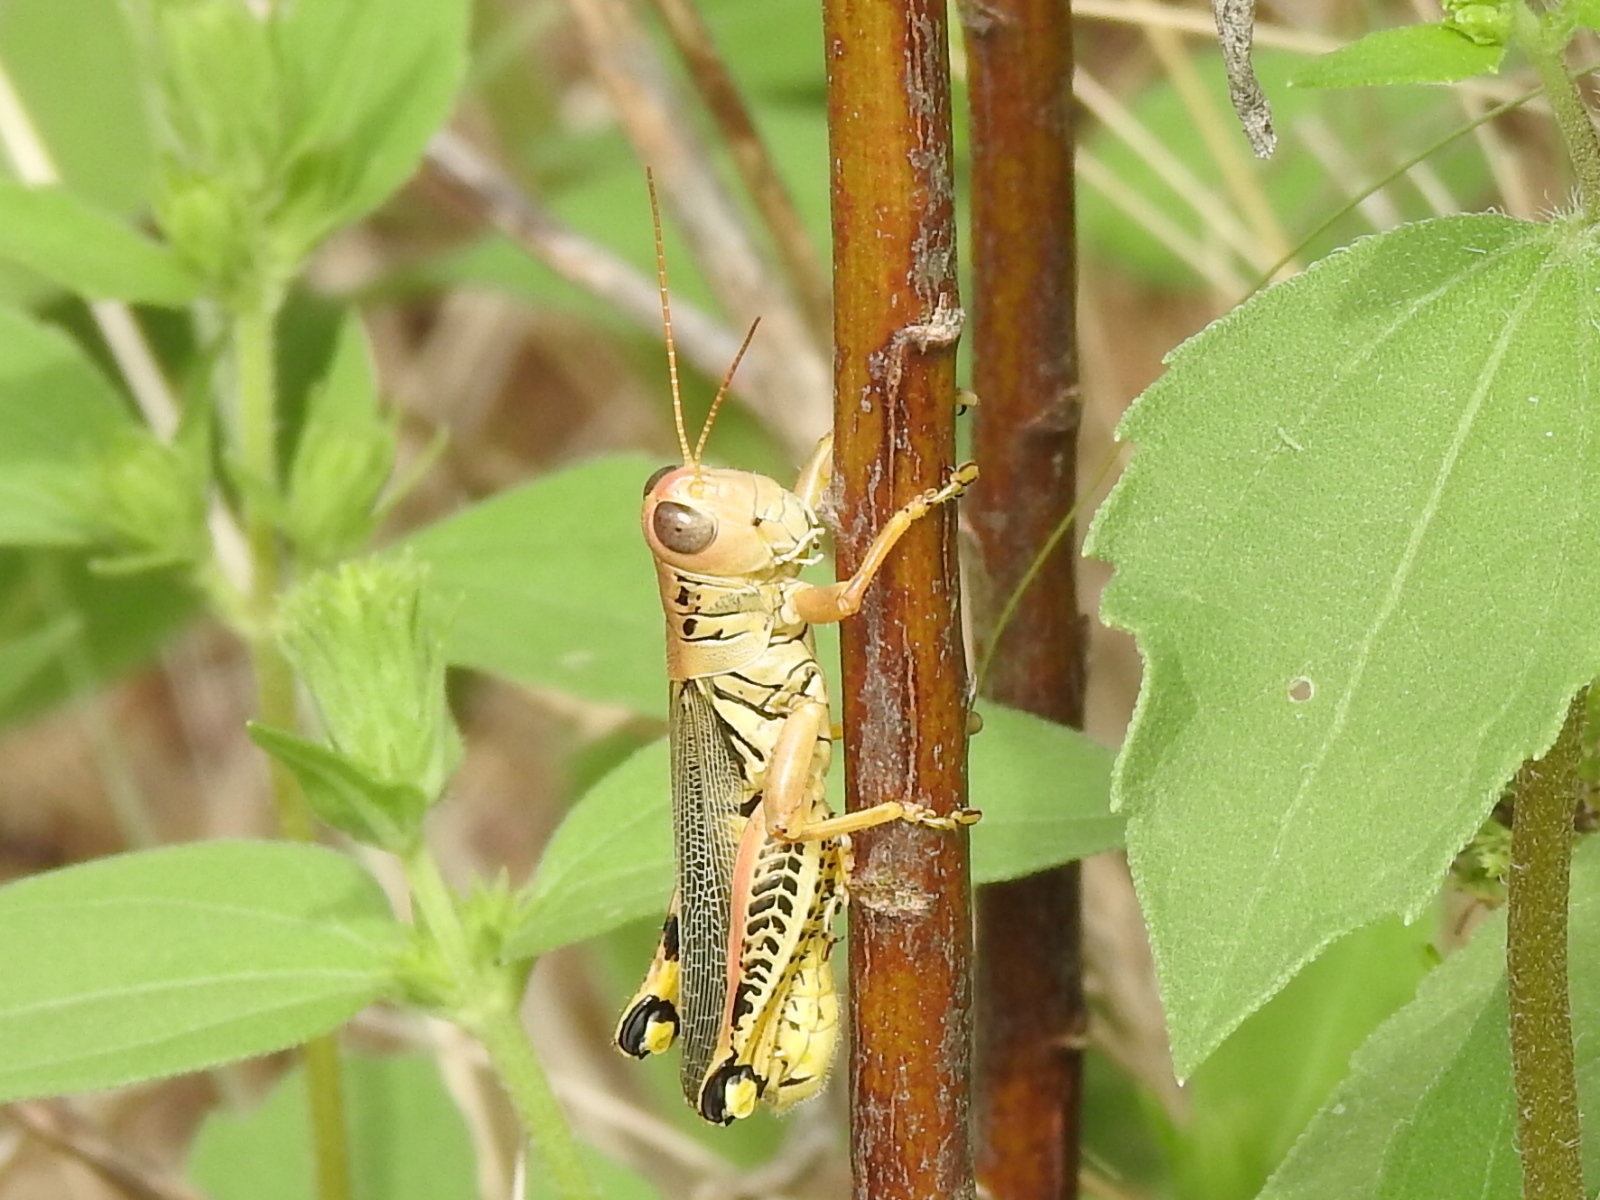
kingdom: Animalia
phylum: Arthropoda
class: Insecta
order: Orthoptera
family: Acrididae
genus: Melanoplus
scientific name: Melanoplus differentialis
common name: Differential grasshopper
